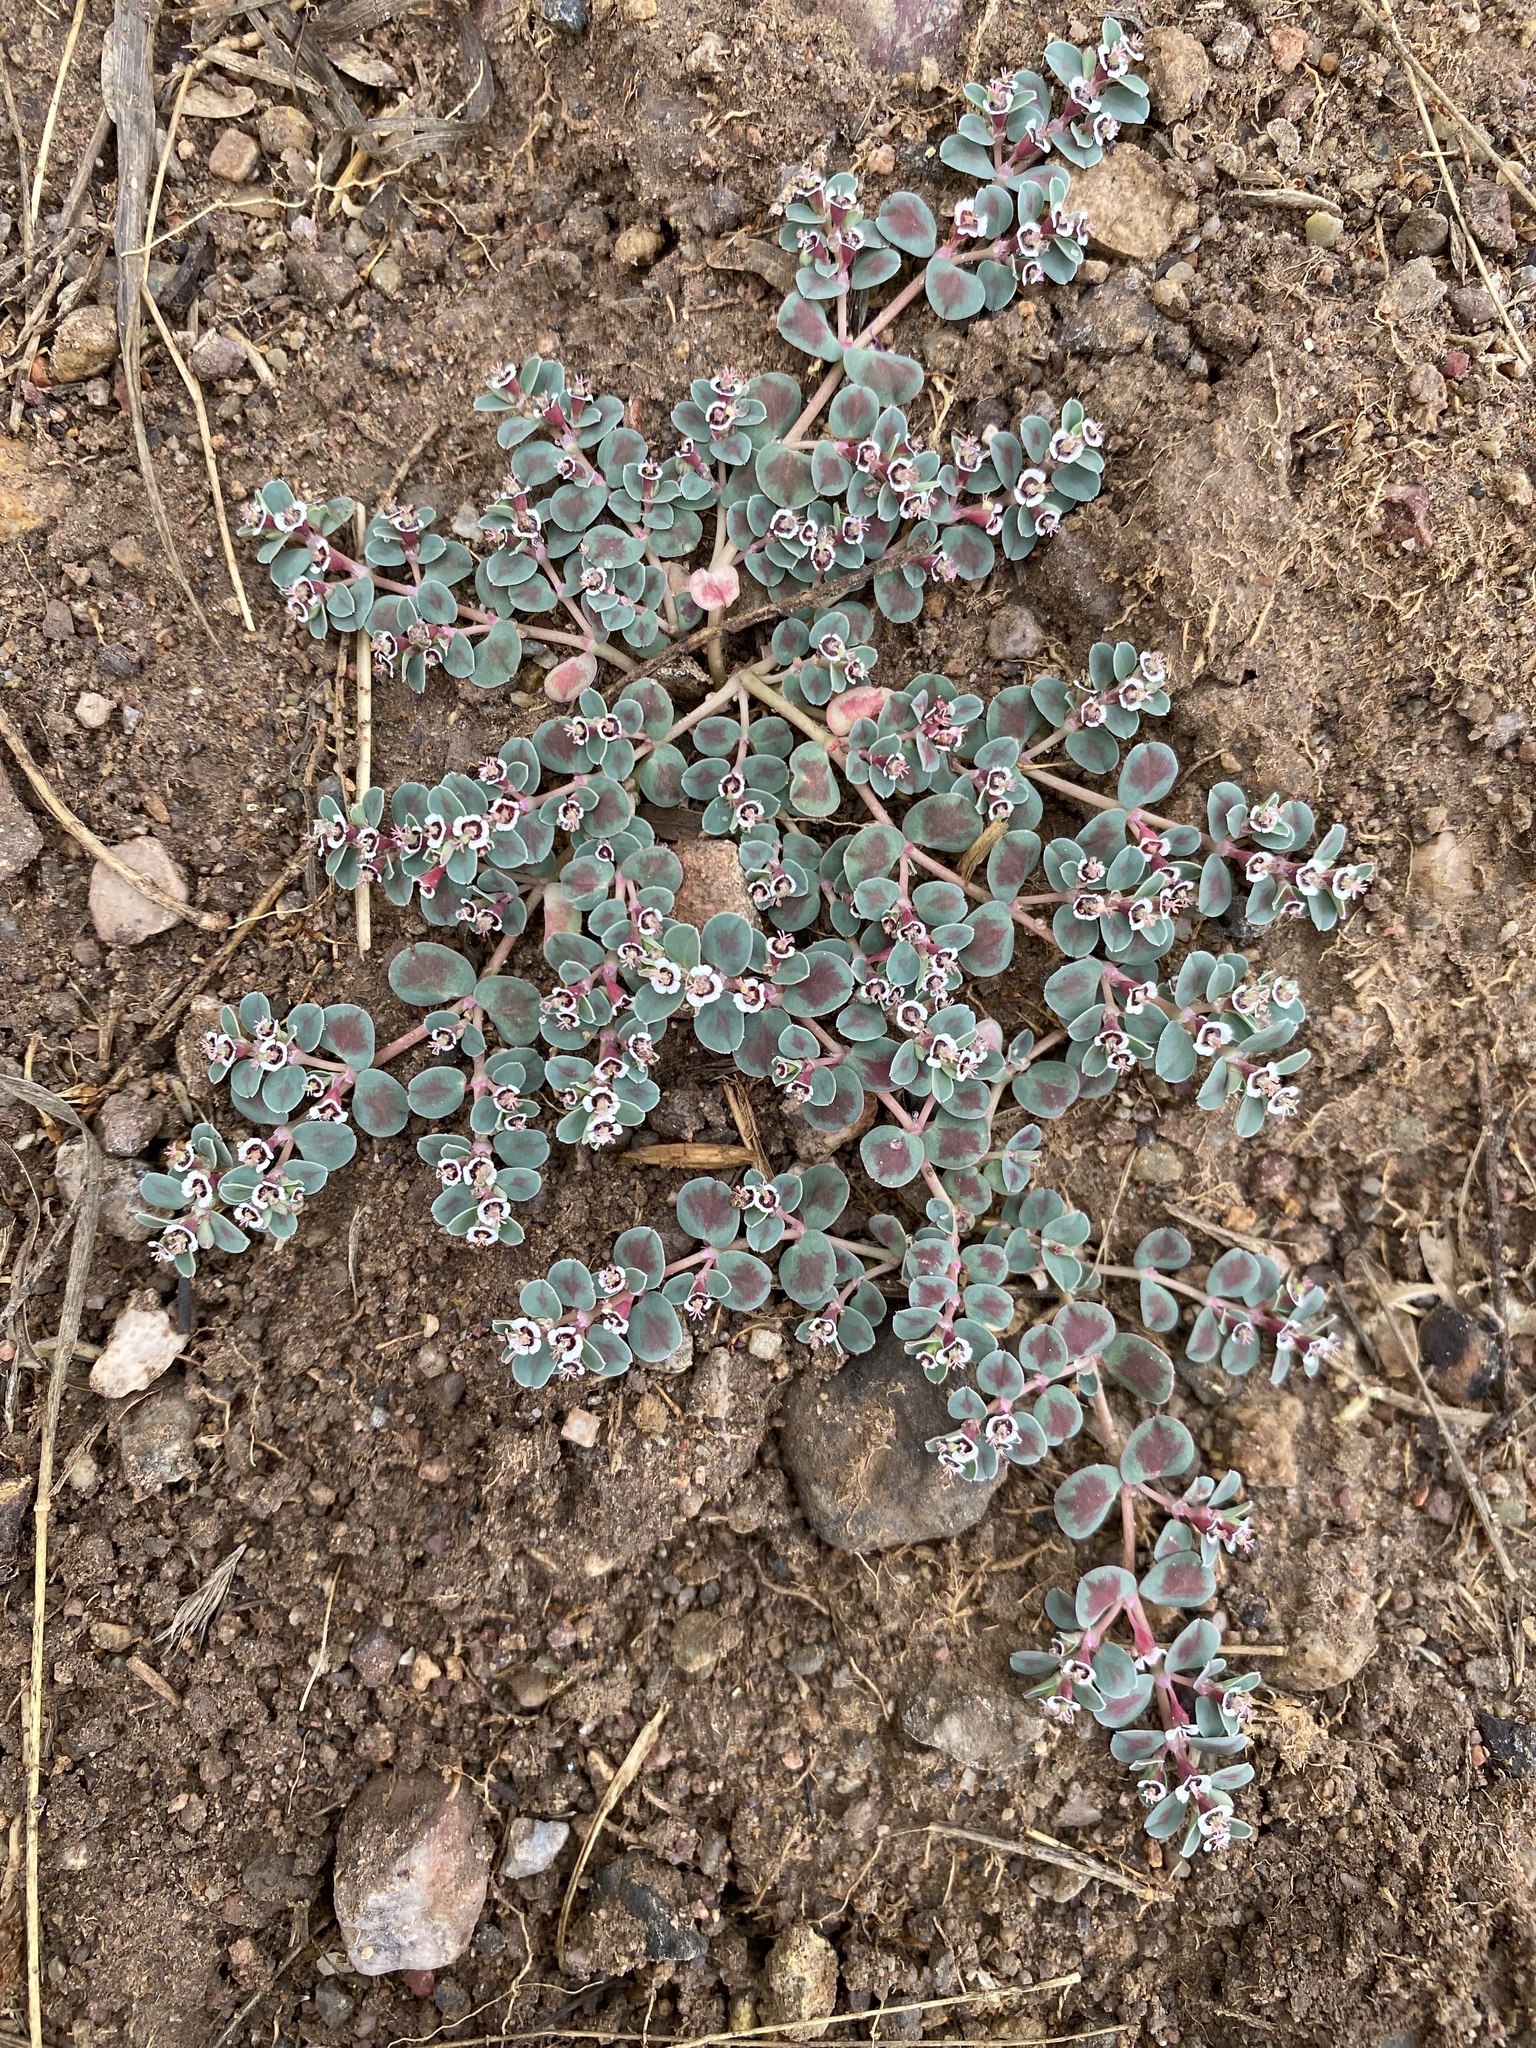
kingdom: Plantae
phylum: Tracheophyta
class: Magnoliopsida
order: Malpighiales
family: Euphorbiaceae
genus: Euphorbia
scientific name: Euphorbia albomarginata
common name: Whitemargin sandmat
